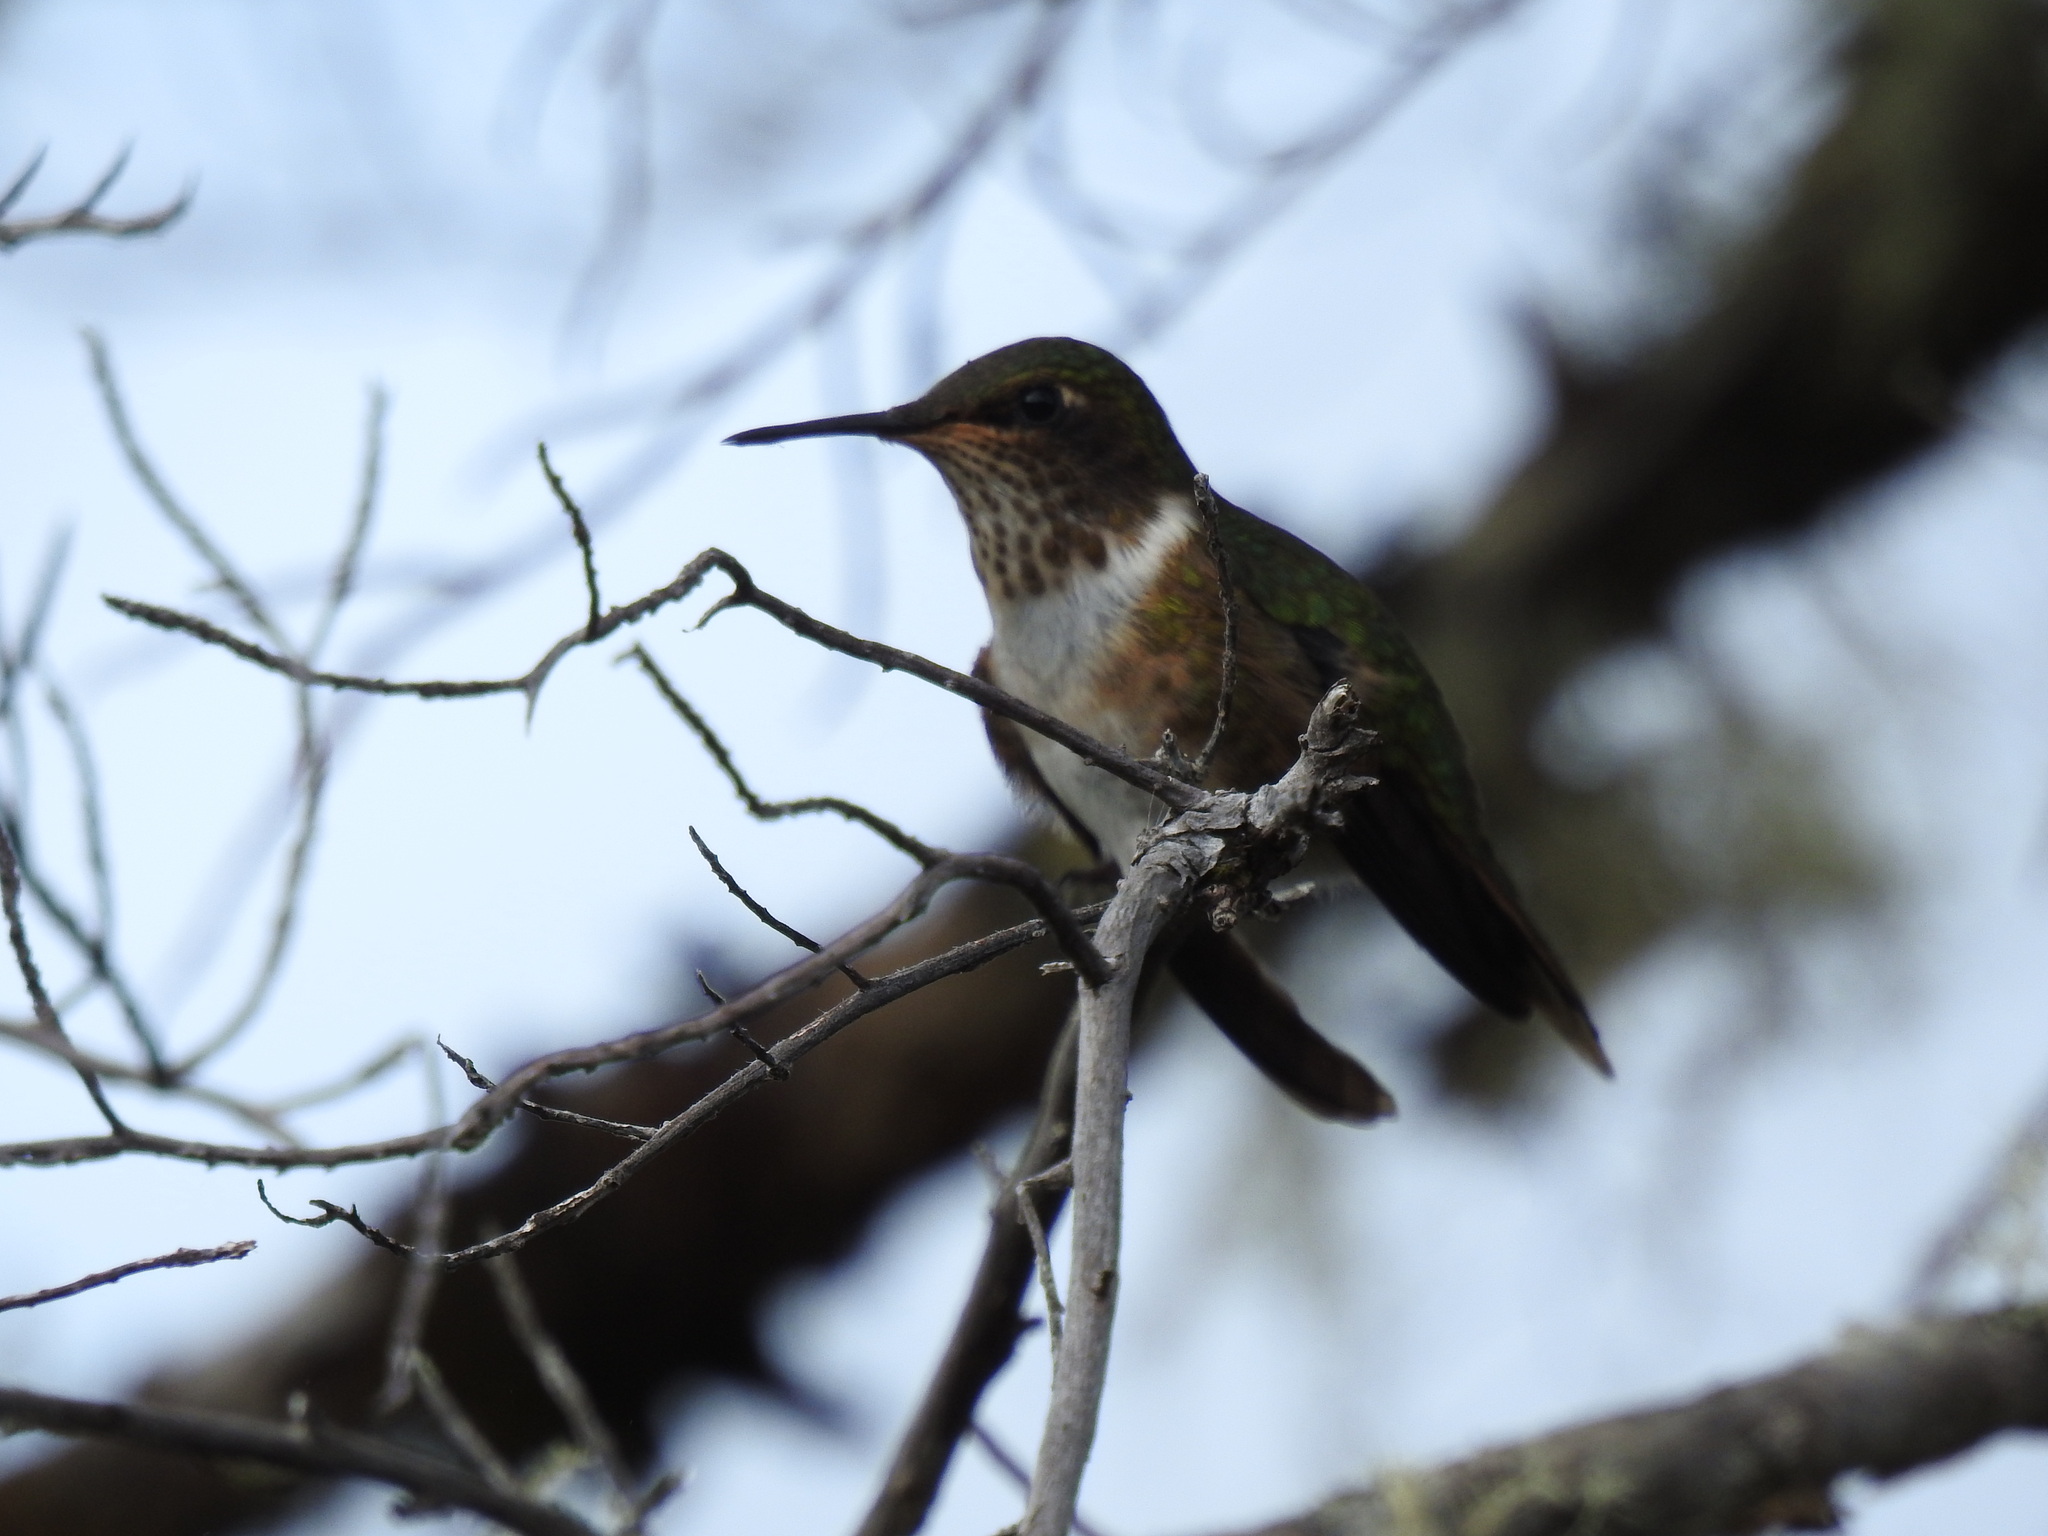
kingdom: Animalia
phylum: Chordata
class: Aves
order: Apodiformes
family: Trochilidae
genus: Selasphorus
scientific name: Selasphorus flammula
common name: Volcano hummingbird
